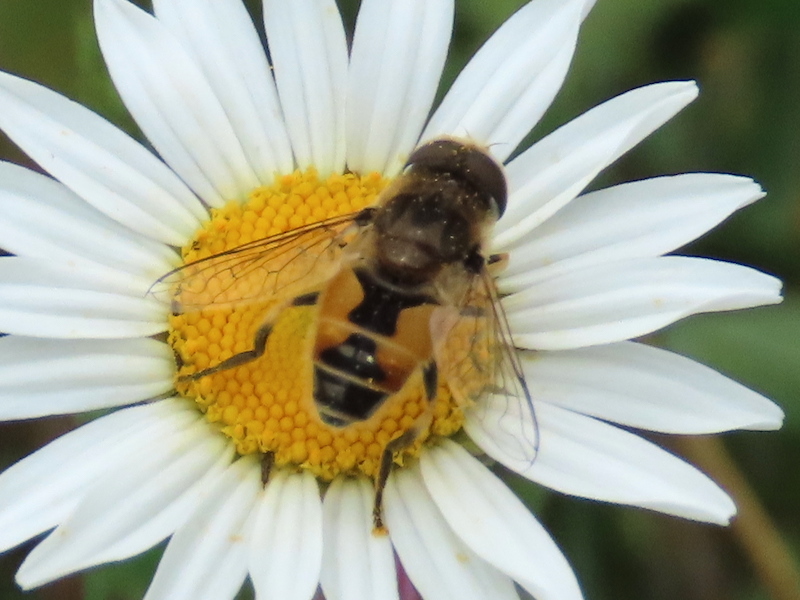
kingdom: Animalia
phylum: Arthropoda
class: Insecta
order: Diptera
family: Syrphidae
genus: Eristalis
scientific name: Eristalis arbustorum
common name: Hover fly
